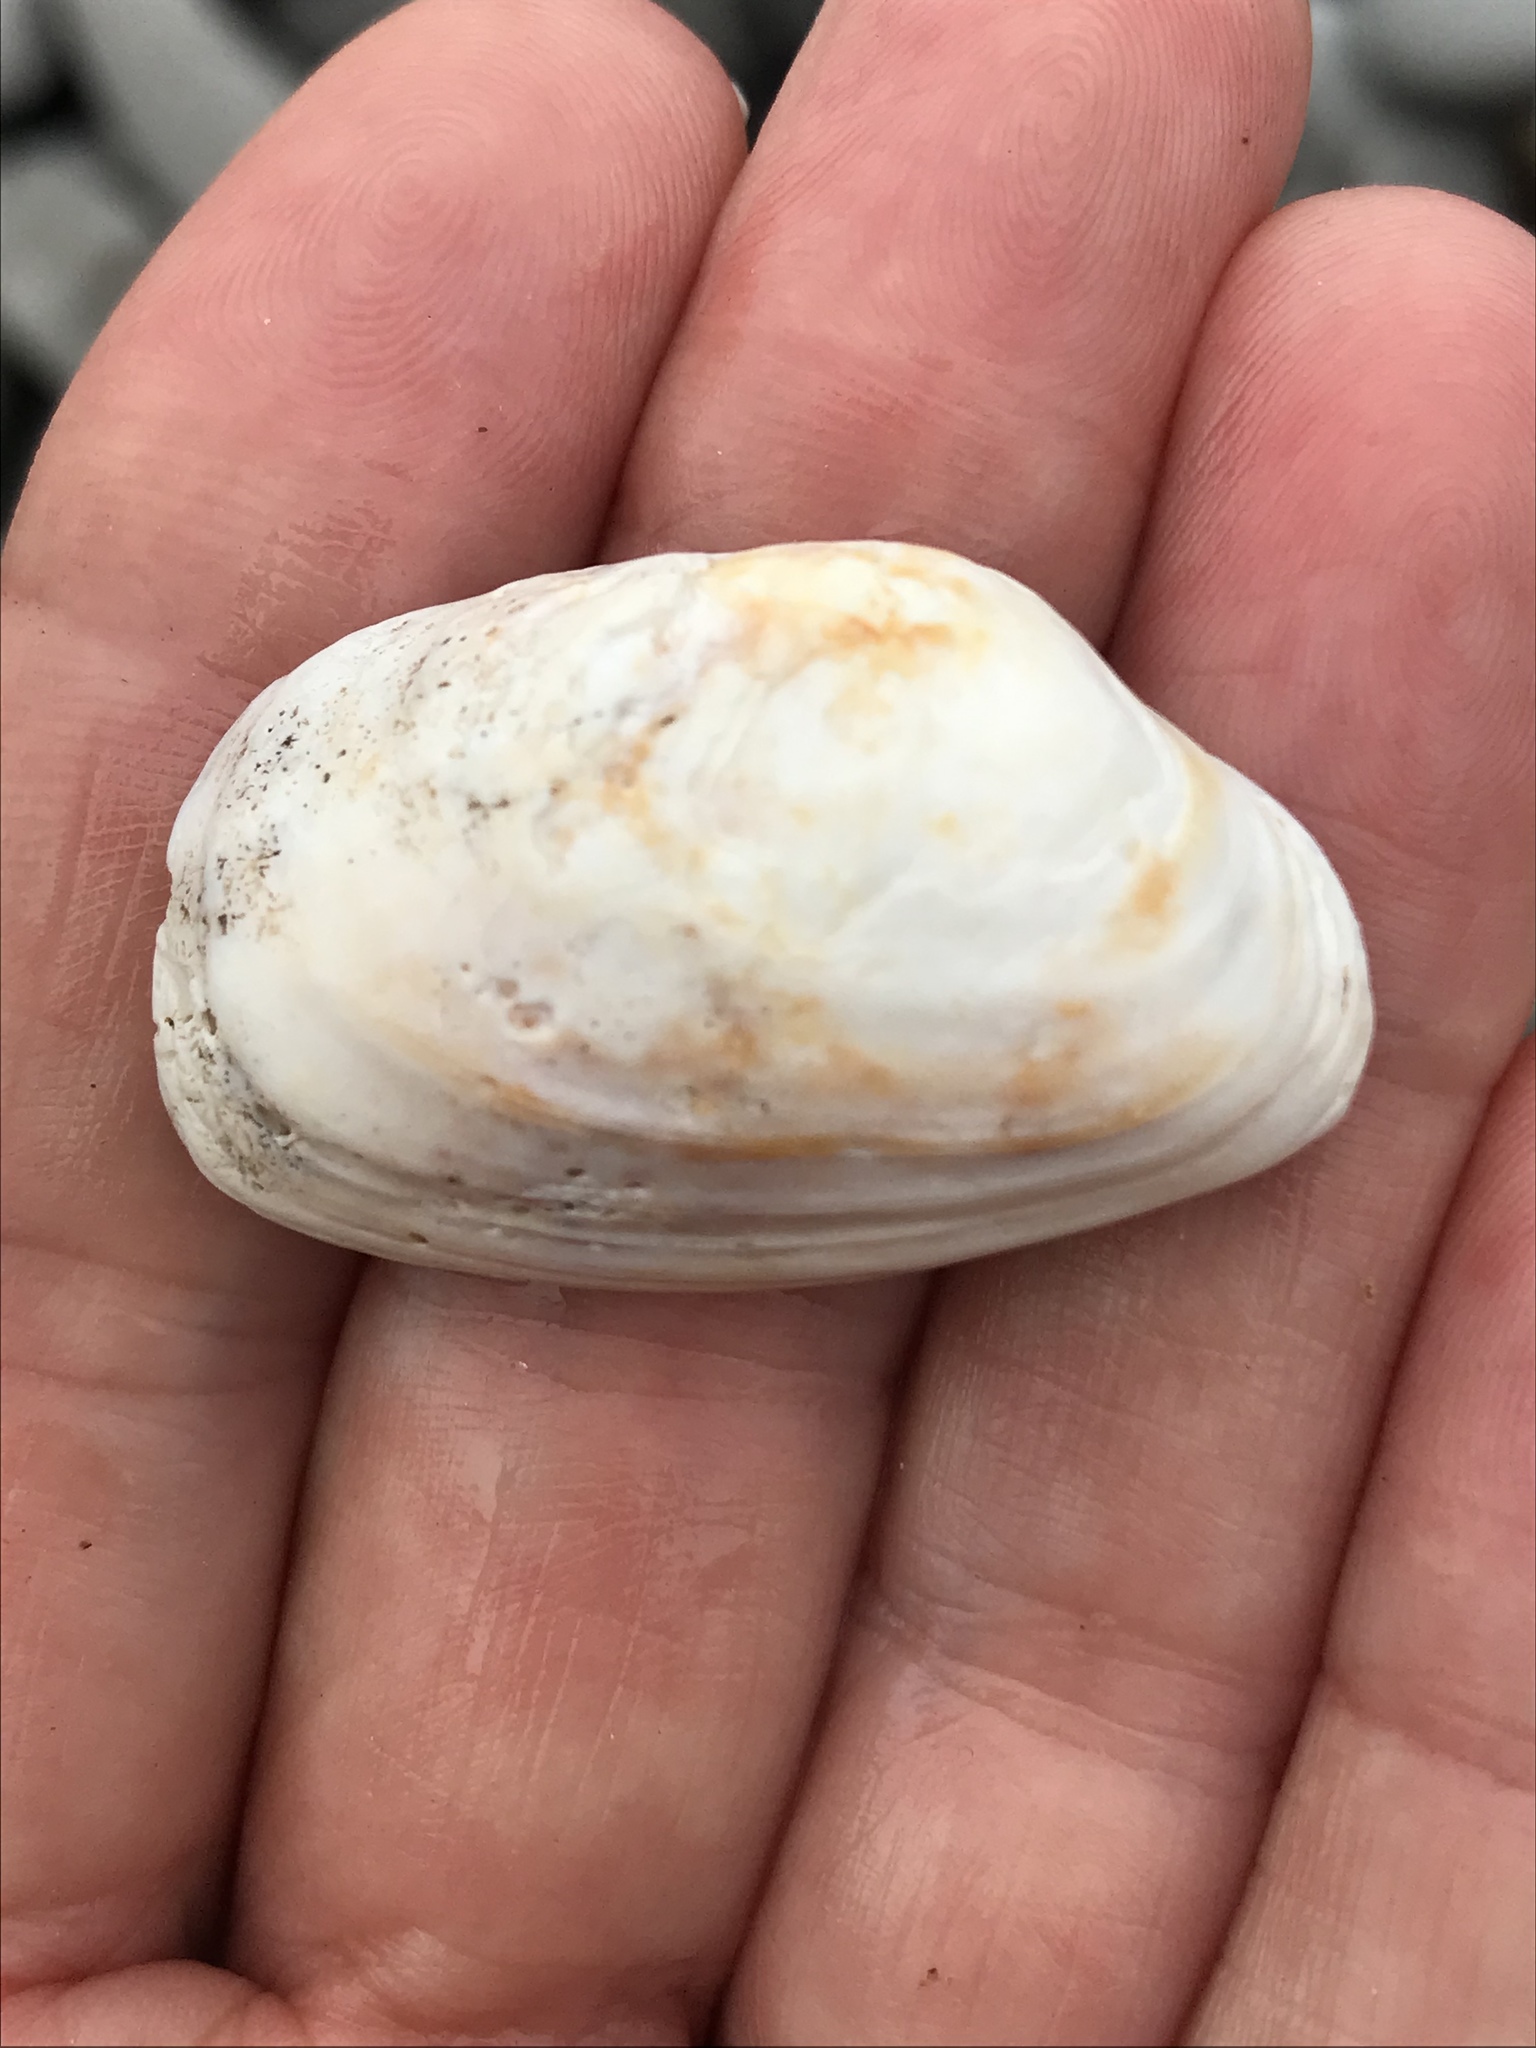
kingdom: Animalia
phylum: Mollusca
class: Bivalvia
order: Venerida
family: Veneridae
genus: Petricola
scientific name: Petricola carditoides
